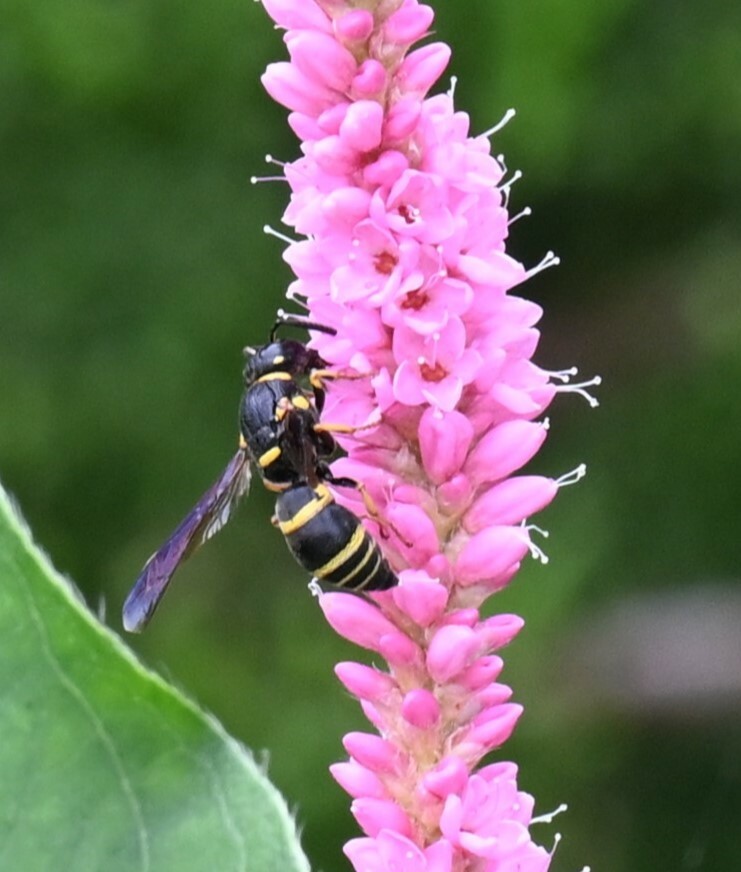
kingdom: Animalia
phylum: Arthropoda
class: Insecta
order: Hymenoptera
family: Eumenidae
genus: Euodynerus
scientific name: Euodynerus foraminatus
